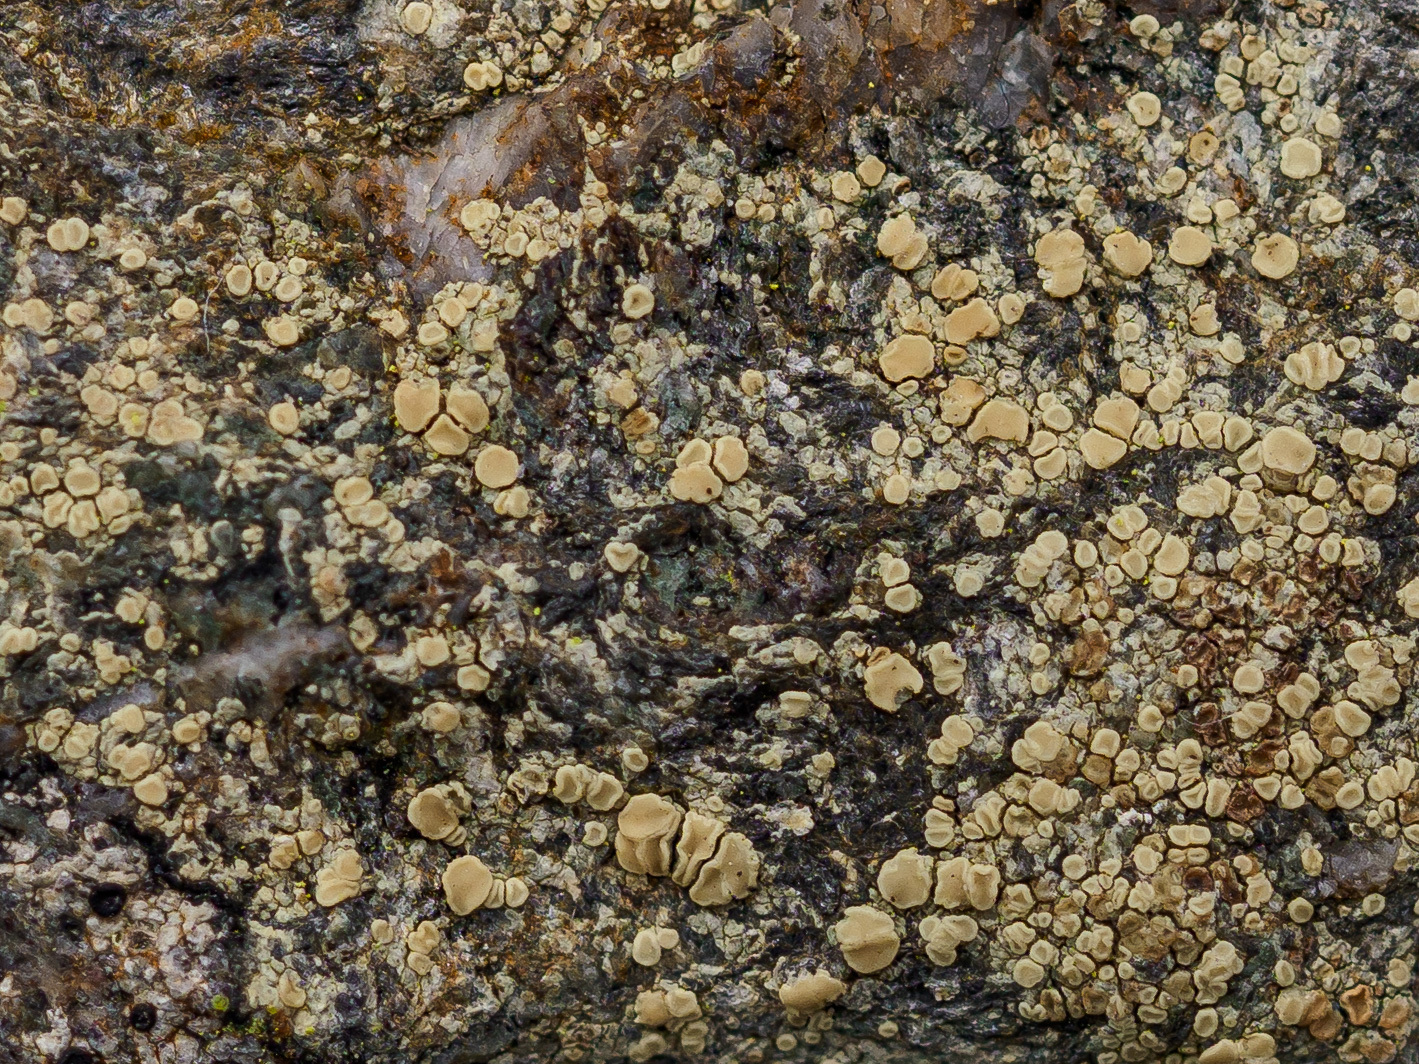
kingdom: Fungi
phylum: Ascomycota
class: Lecanoromycetes
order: Lecanorales
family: Lecanoraceae
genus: Lecanora
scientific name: Lecanora polytropa
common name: Granite-speck rim lichen
